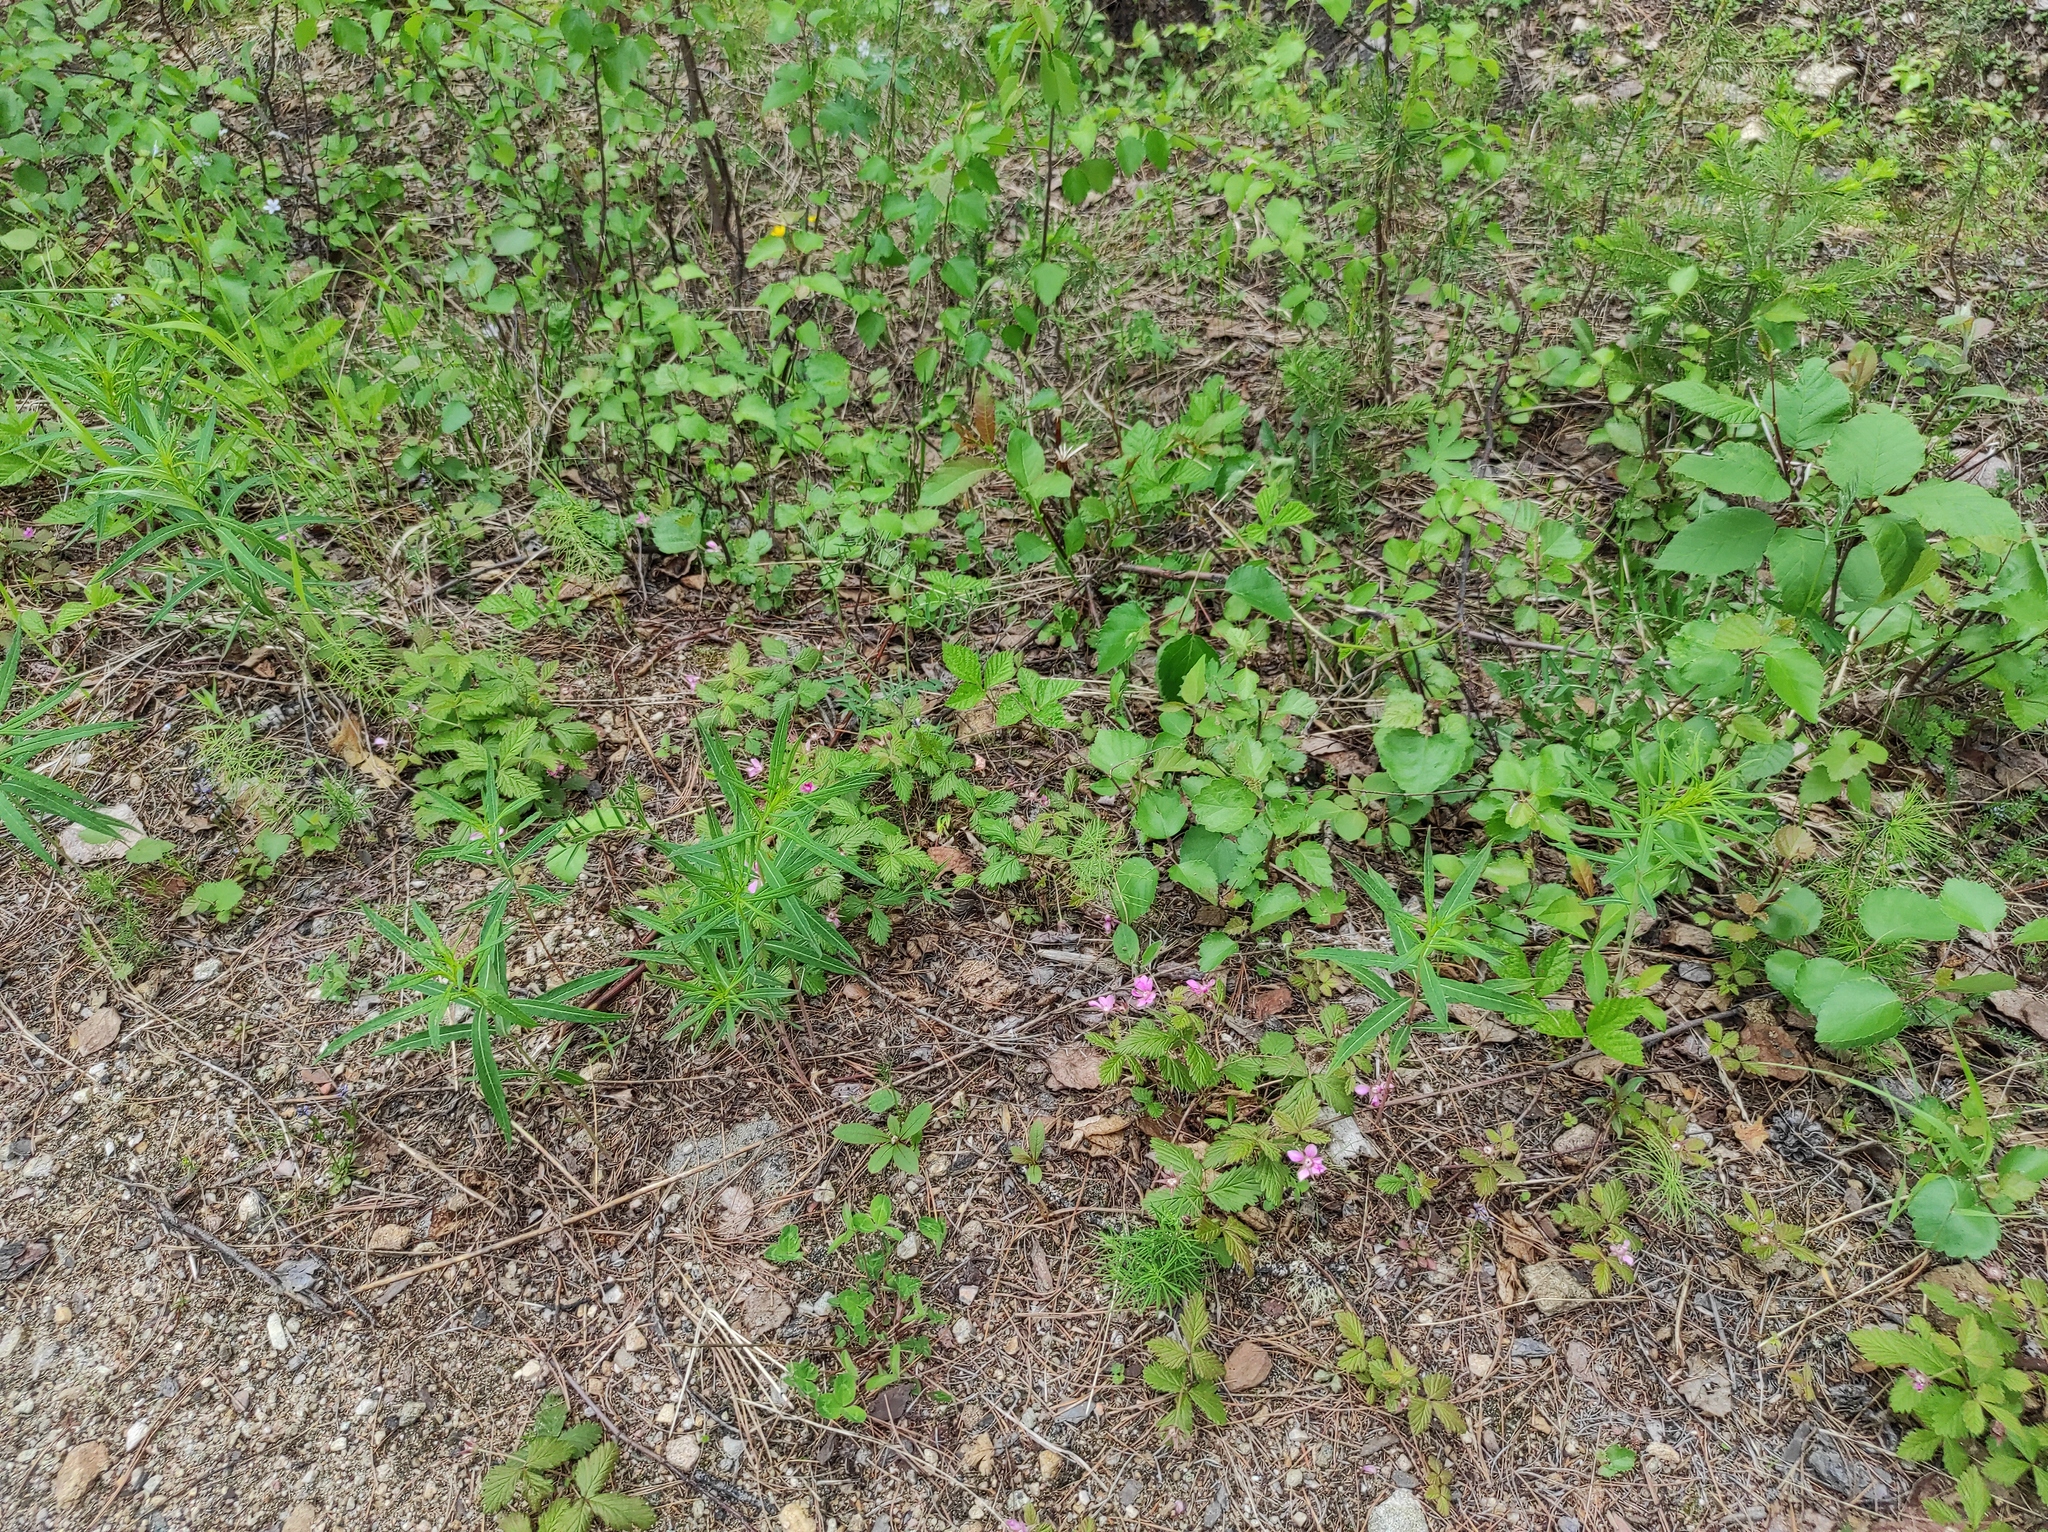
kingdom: Plantae
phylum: Tracheophyta
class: Magnoliopsida
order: Rosales
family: Rosaceae
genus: Rubus
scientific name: Rubus arcticus
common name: Arctic bramble
